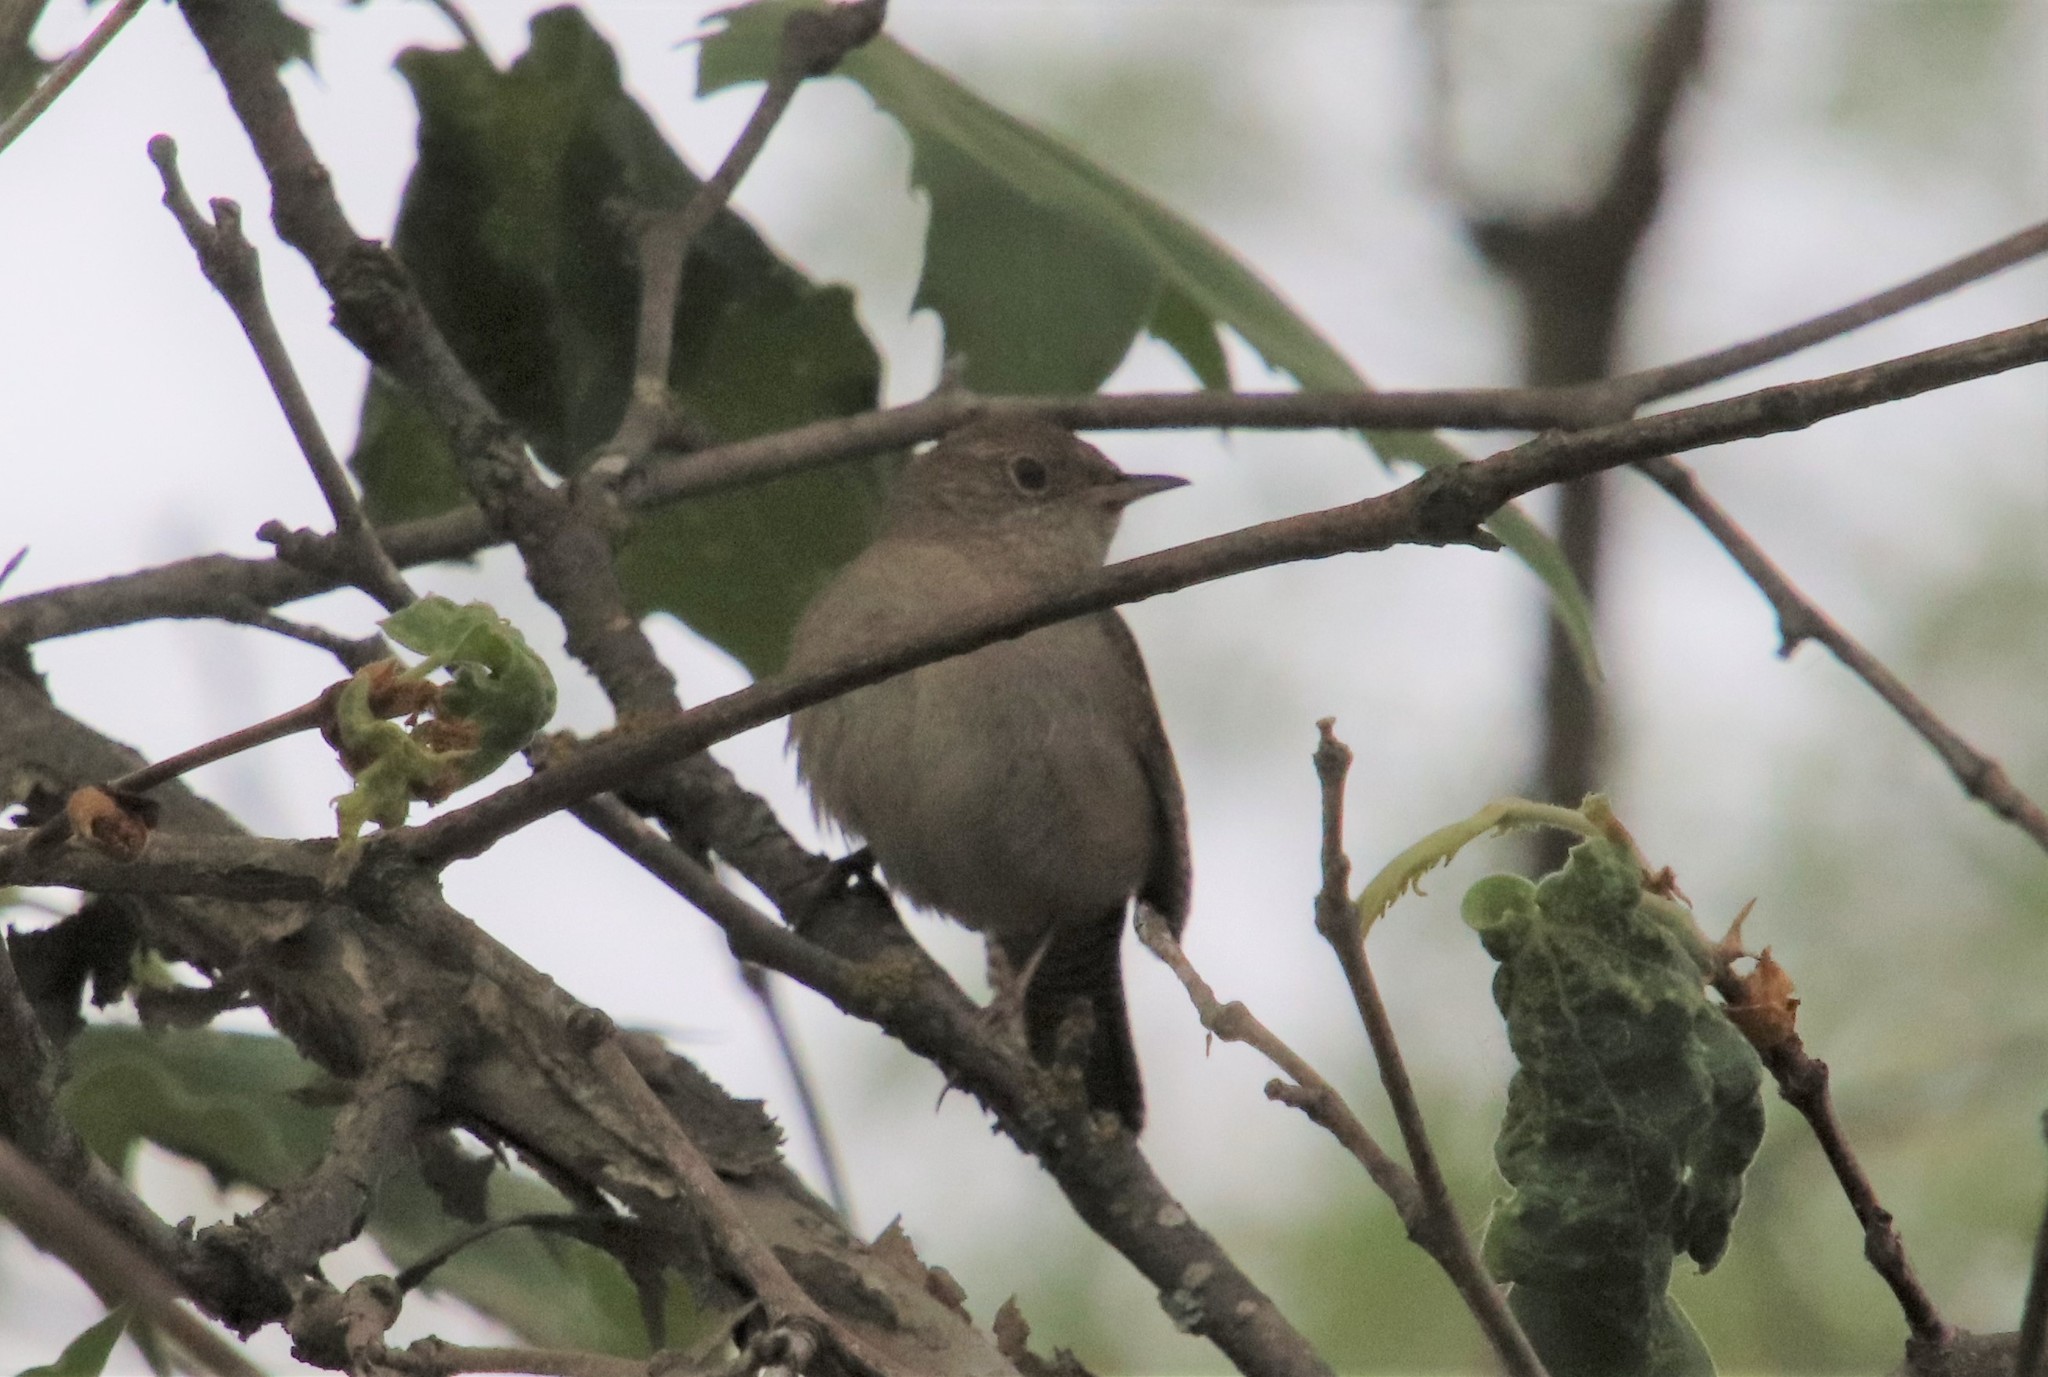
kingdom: Animalia
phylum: Chordata
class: Aves
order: Passeriformes
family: Troglodytidae
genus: Troglodytes
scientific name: Troglodytes aedon
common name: House wren
